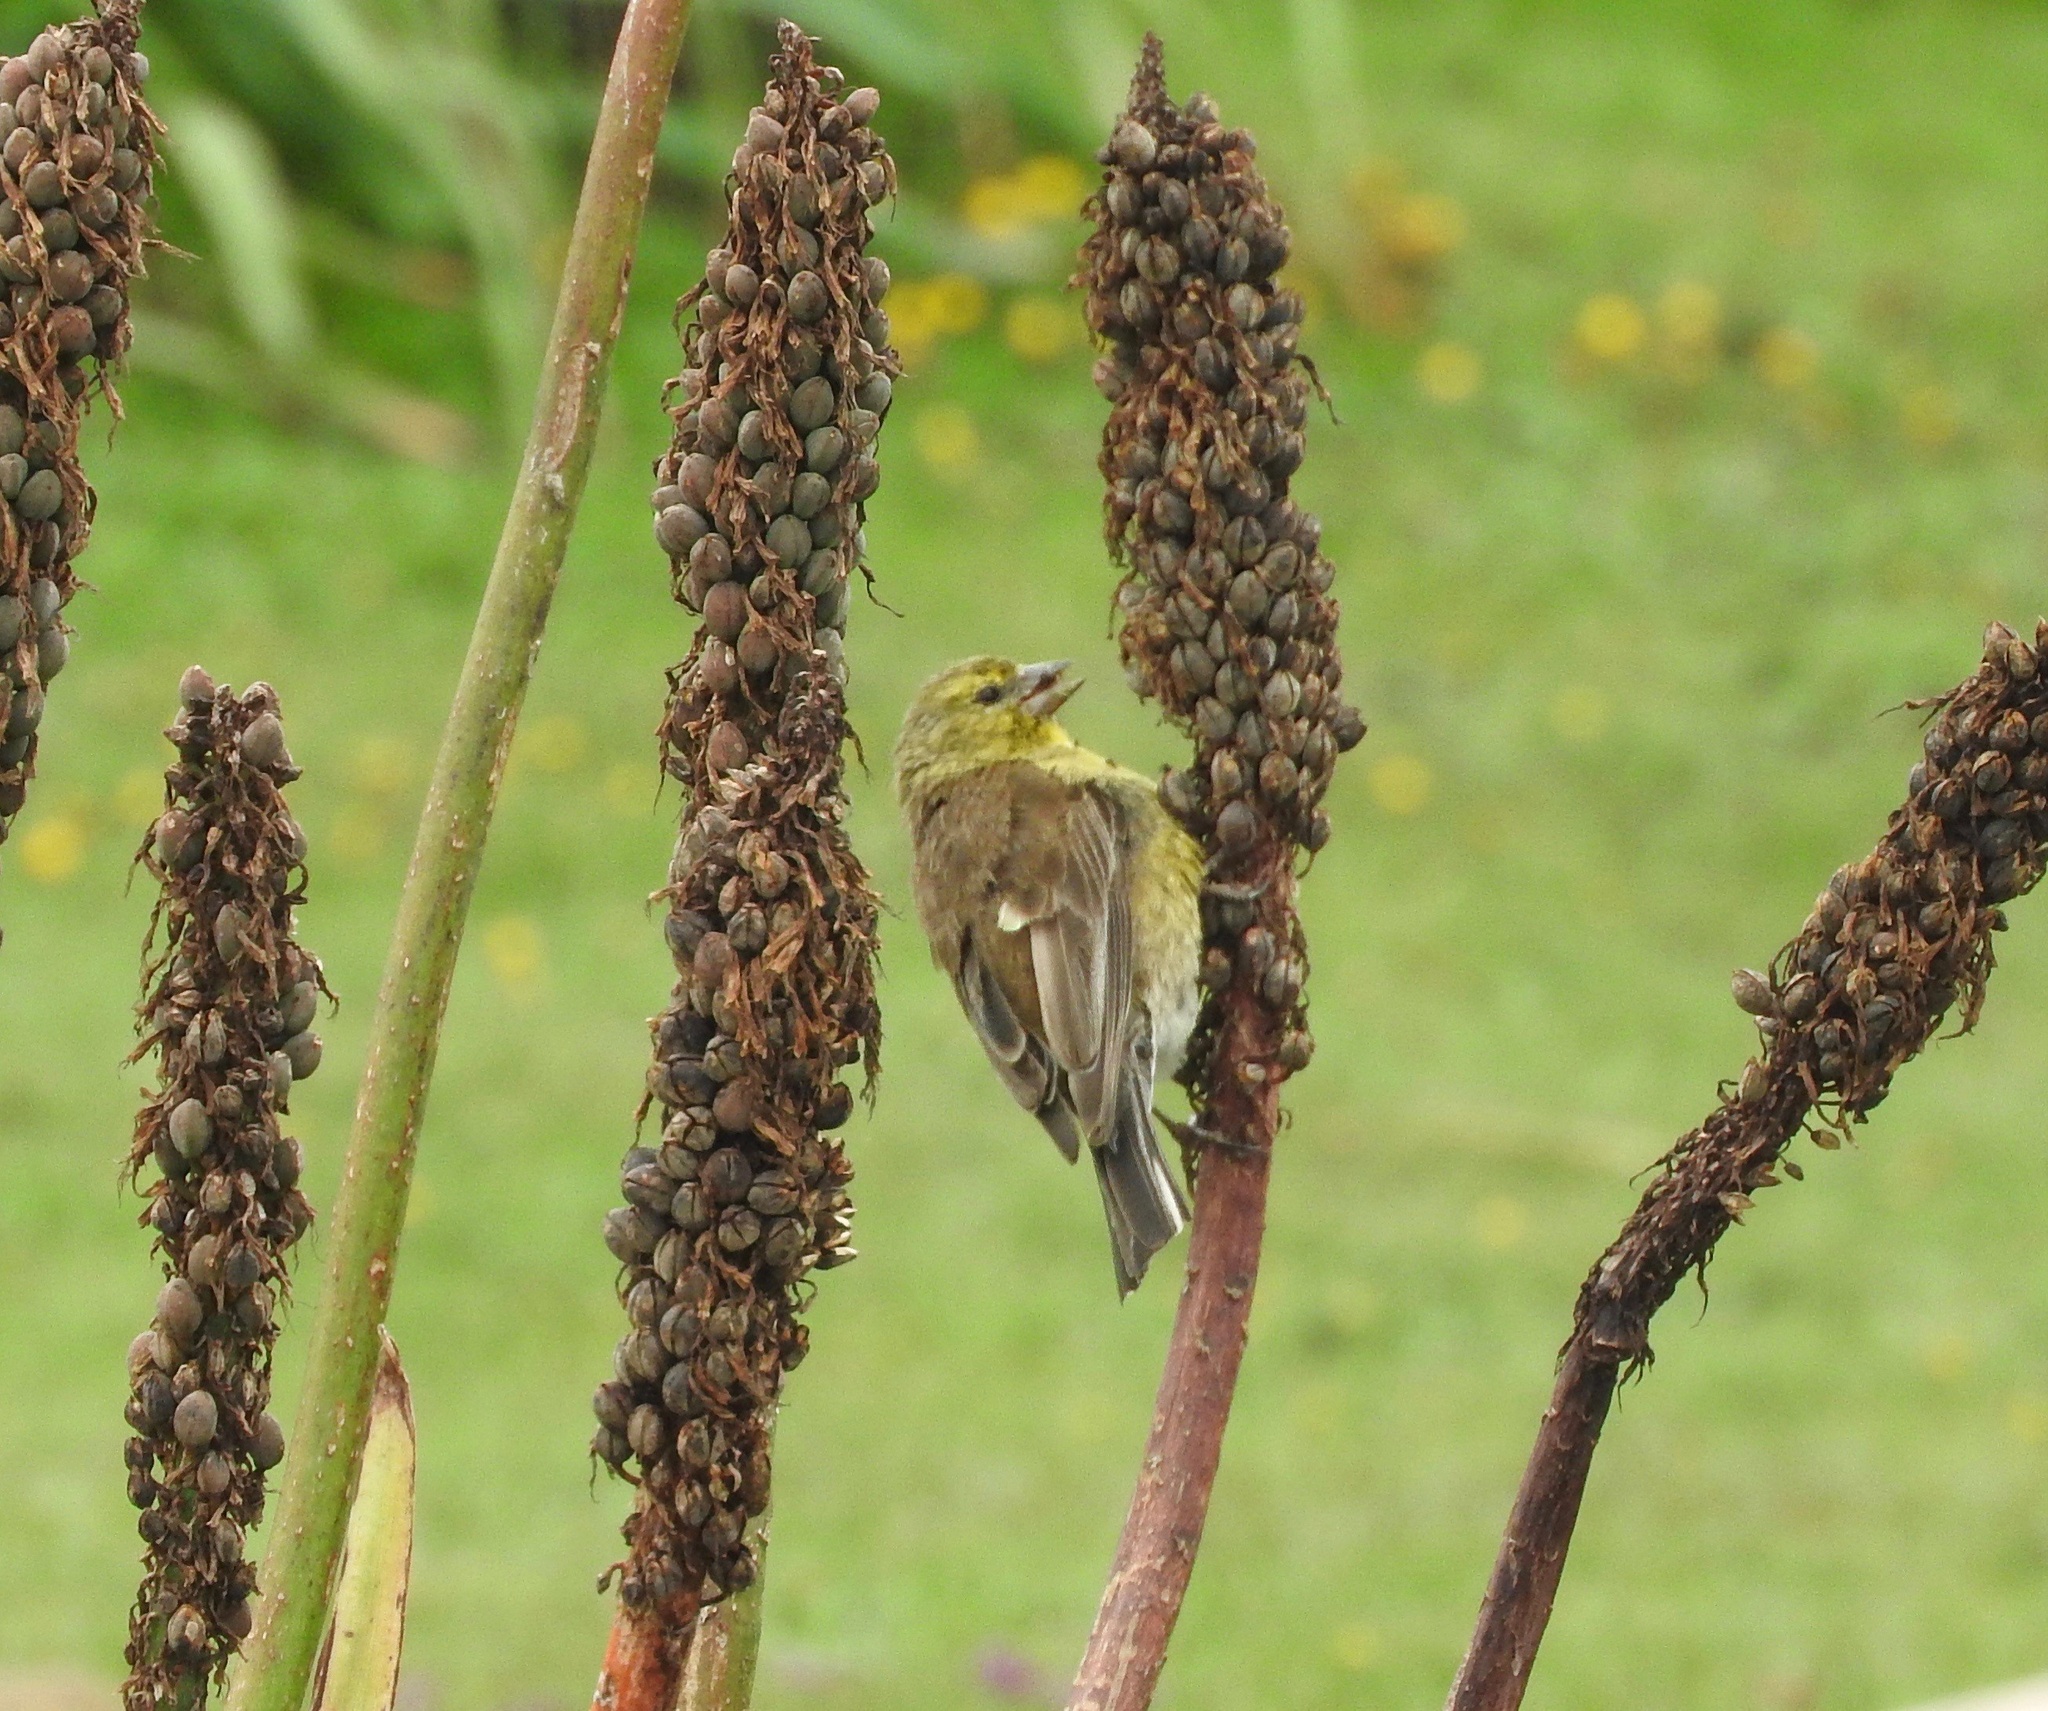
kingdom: Animalia
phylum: Chordata
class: Aves
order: Passeriformes
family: Fringillidae
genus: Crithagra
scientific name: Crithagra symonsi
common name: Drakensberg siskin
